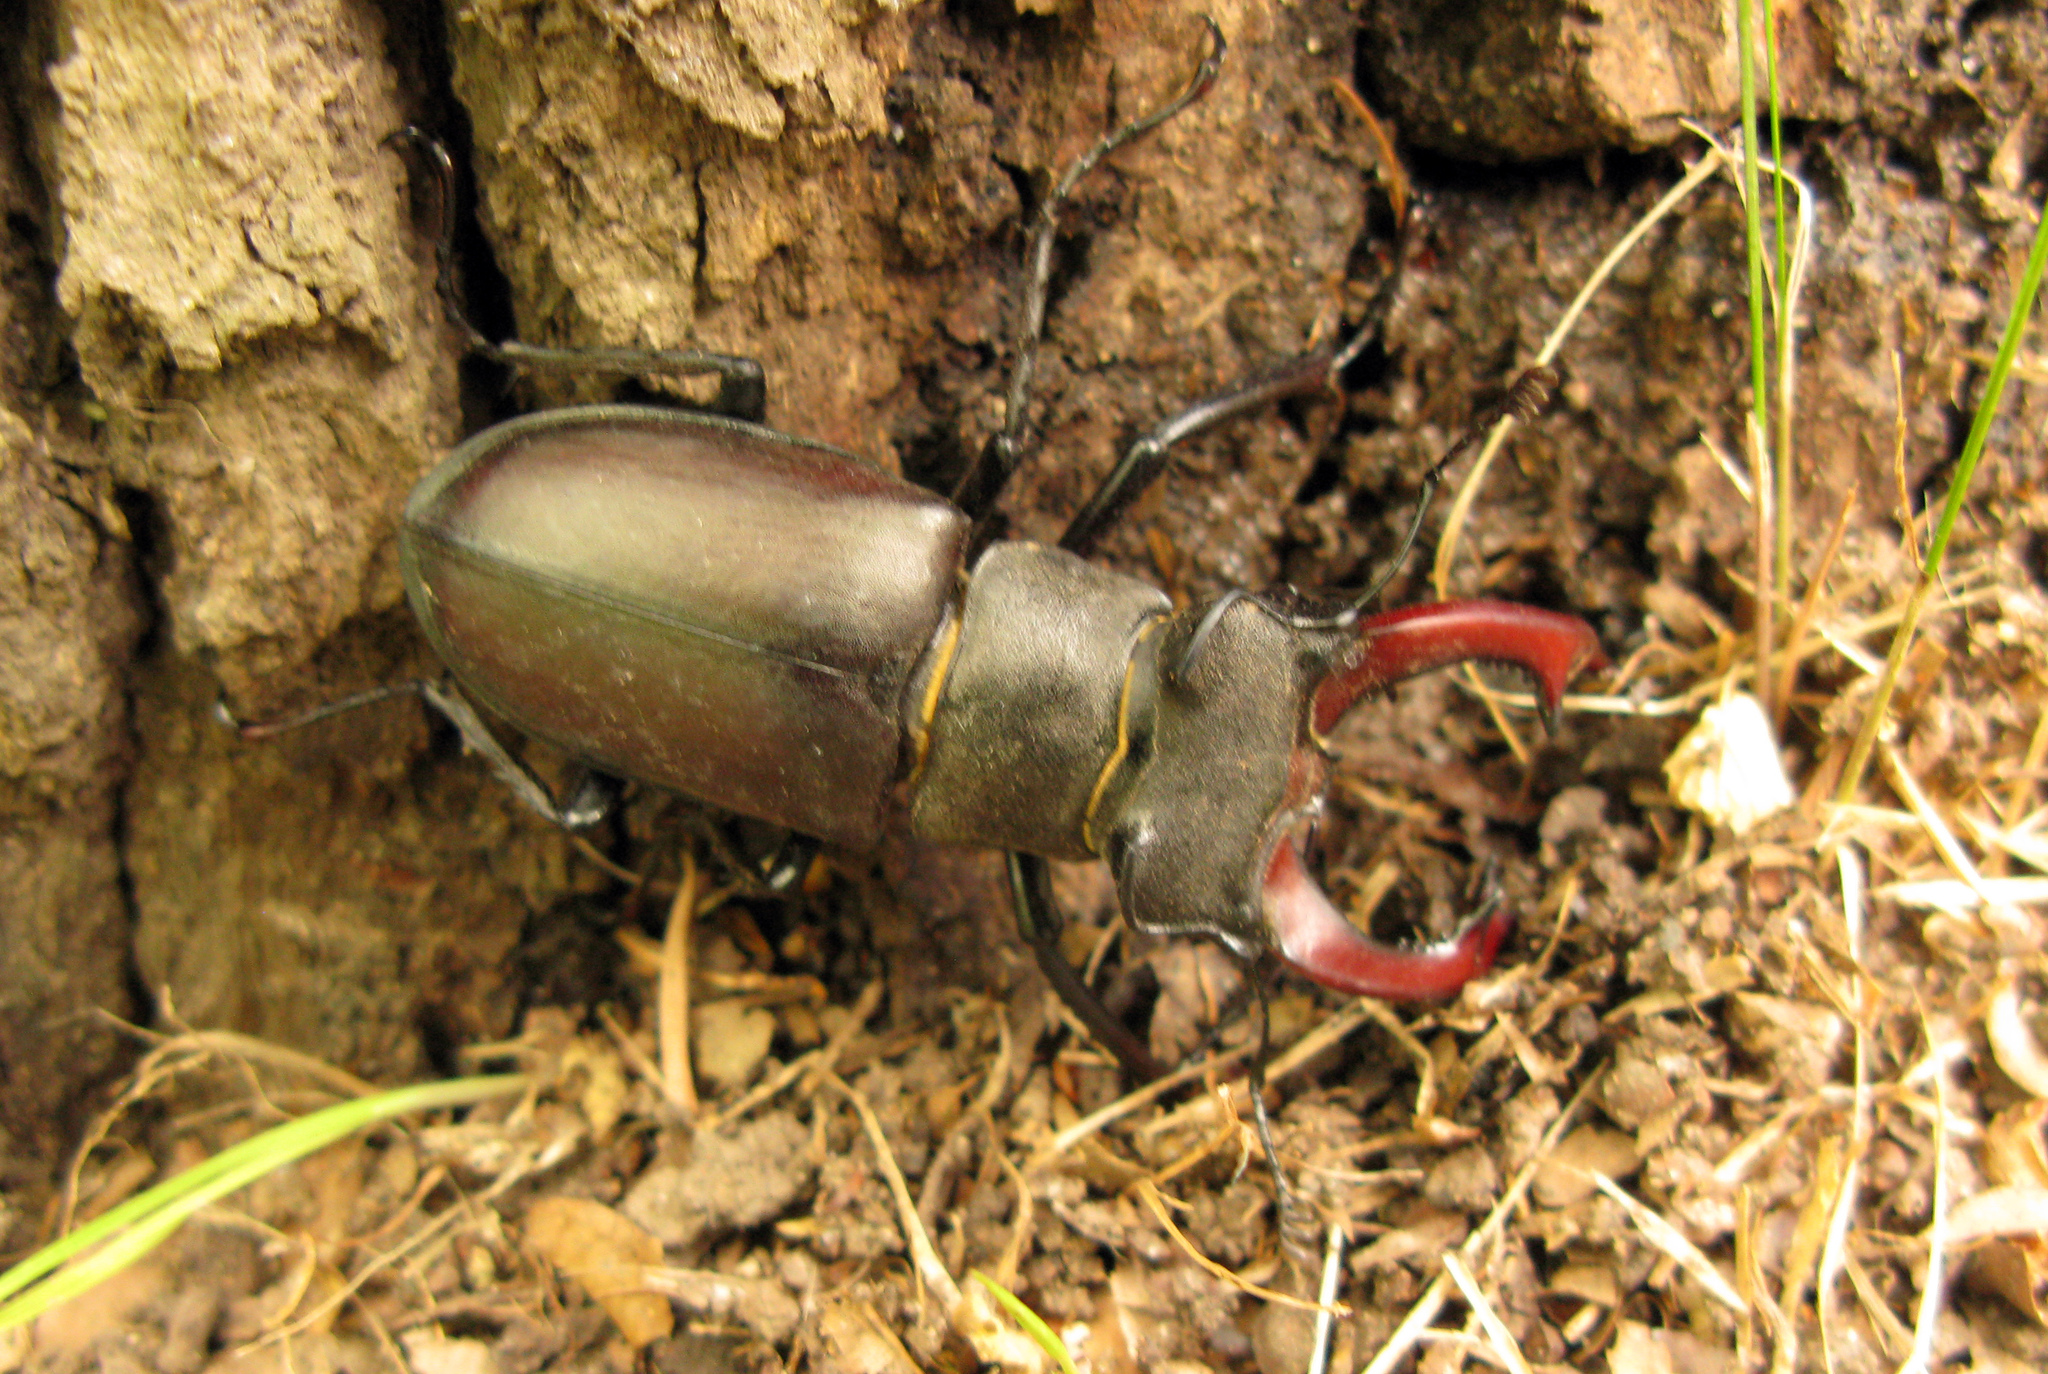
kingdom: Animalia
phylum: Arthropoda
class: Insecta
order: Coleoptera
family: Lucanidae
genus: Lucanus
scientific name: Lucanus cervus
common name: Stag beetle
